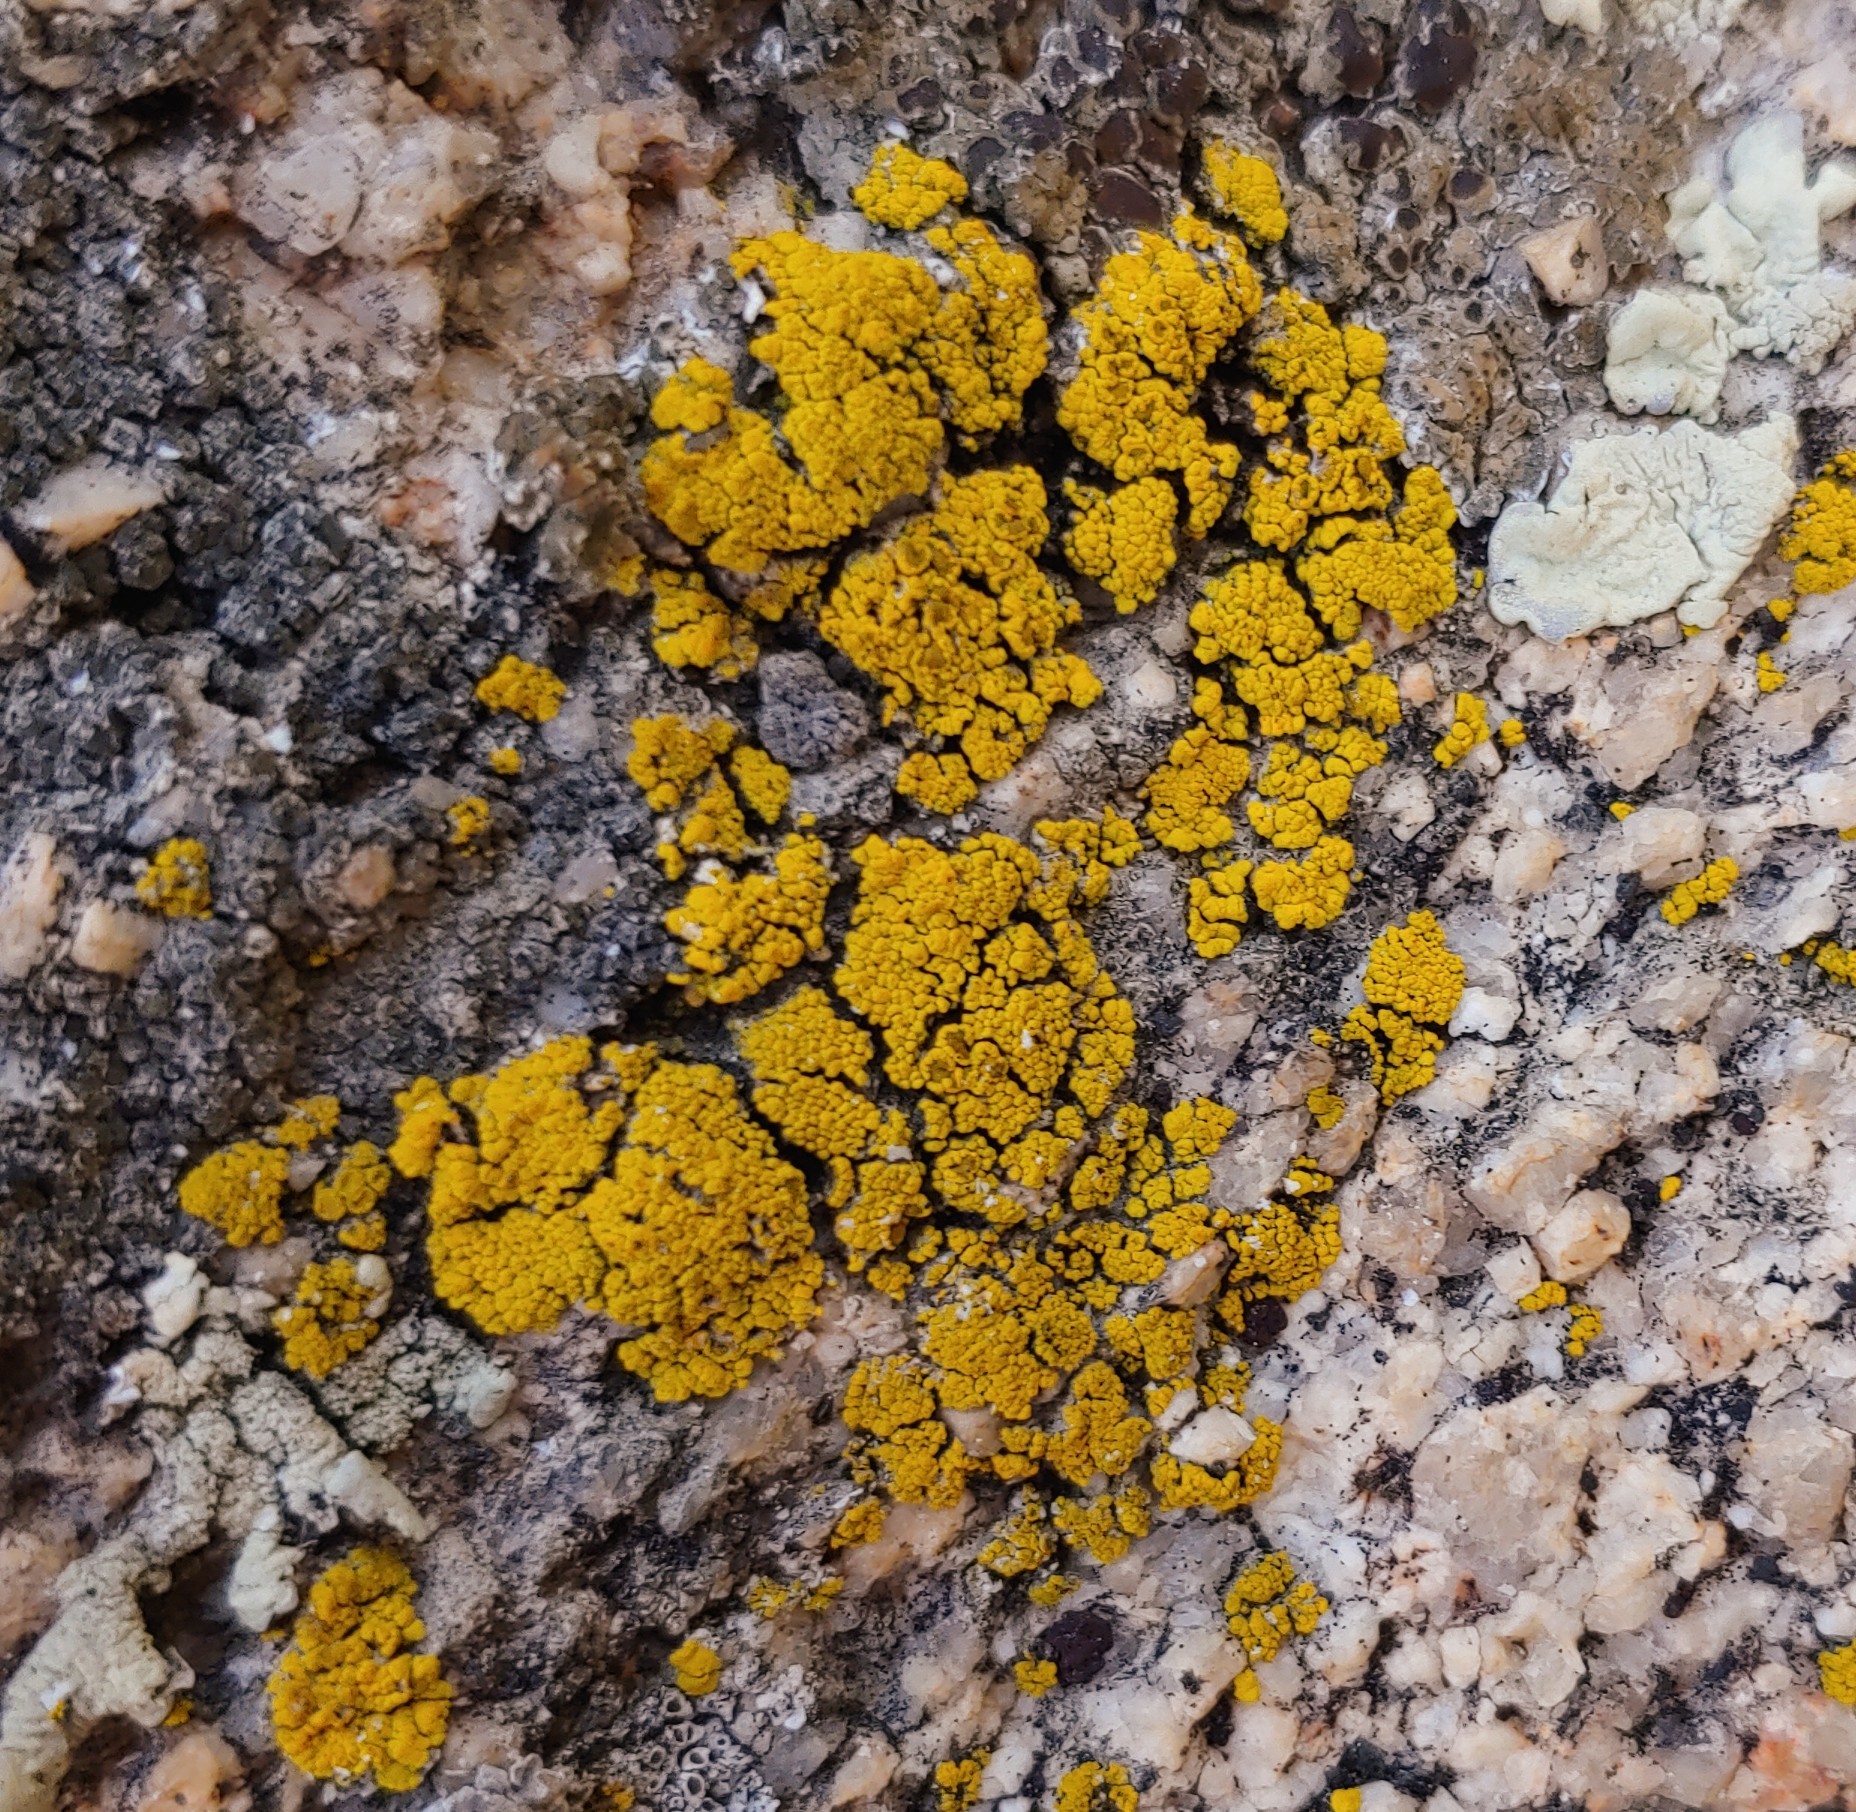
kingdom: Fungi
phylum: Ascomycota
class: Candelariomycetes
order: Candelariales
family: Candelariaceae
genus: Candelariella
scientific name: Candelariella rosulans
